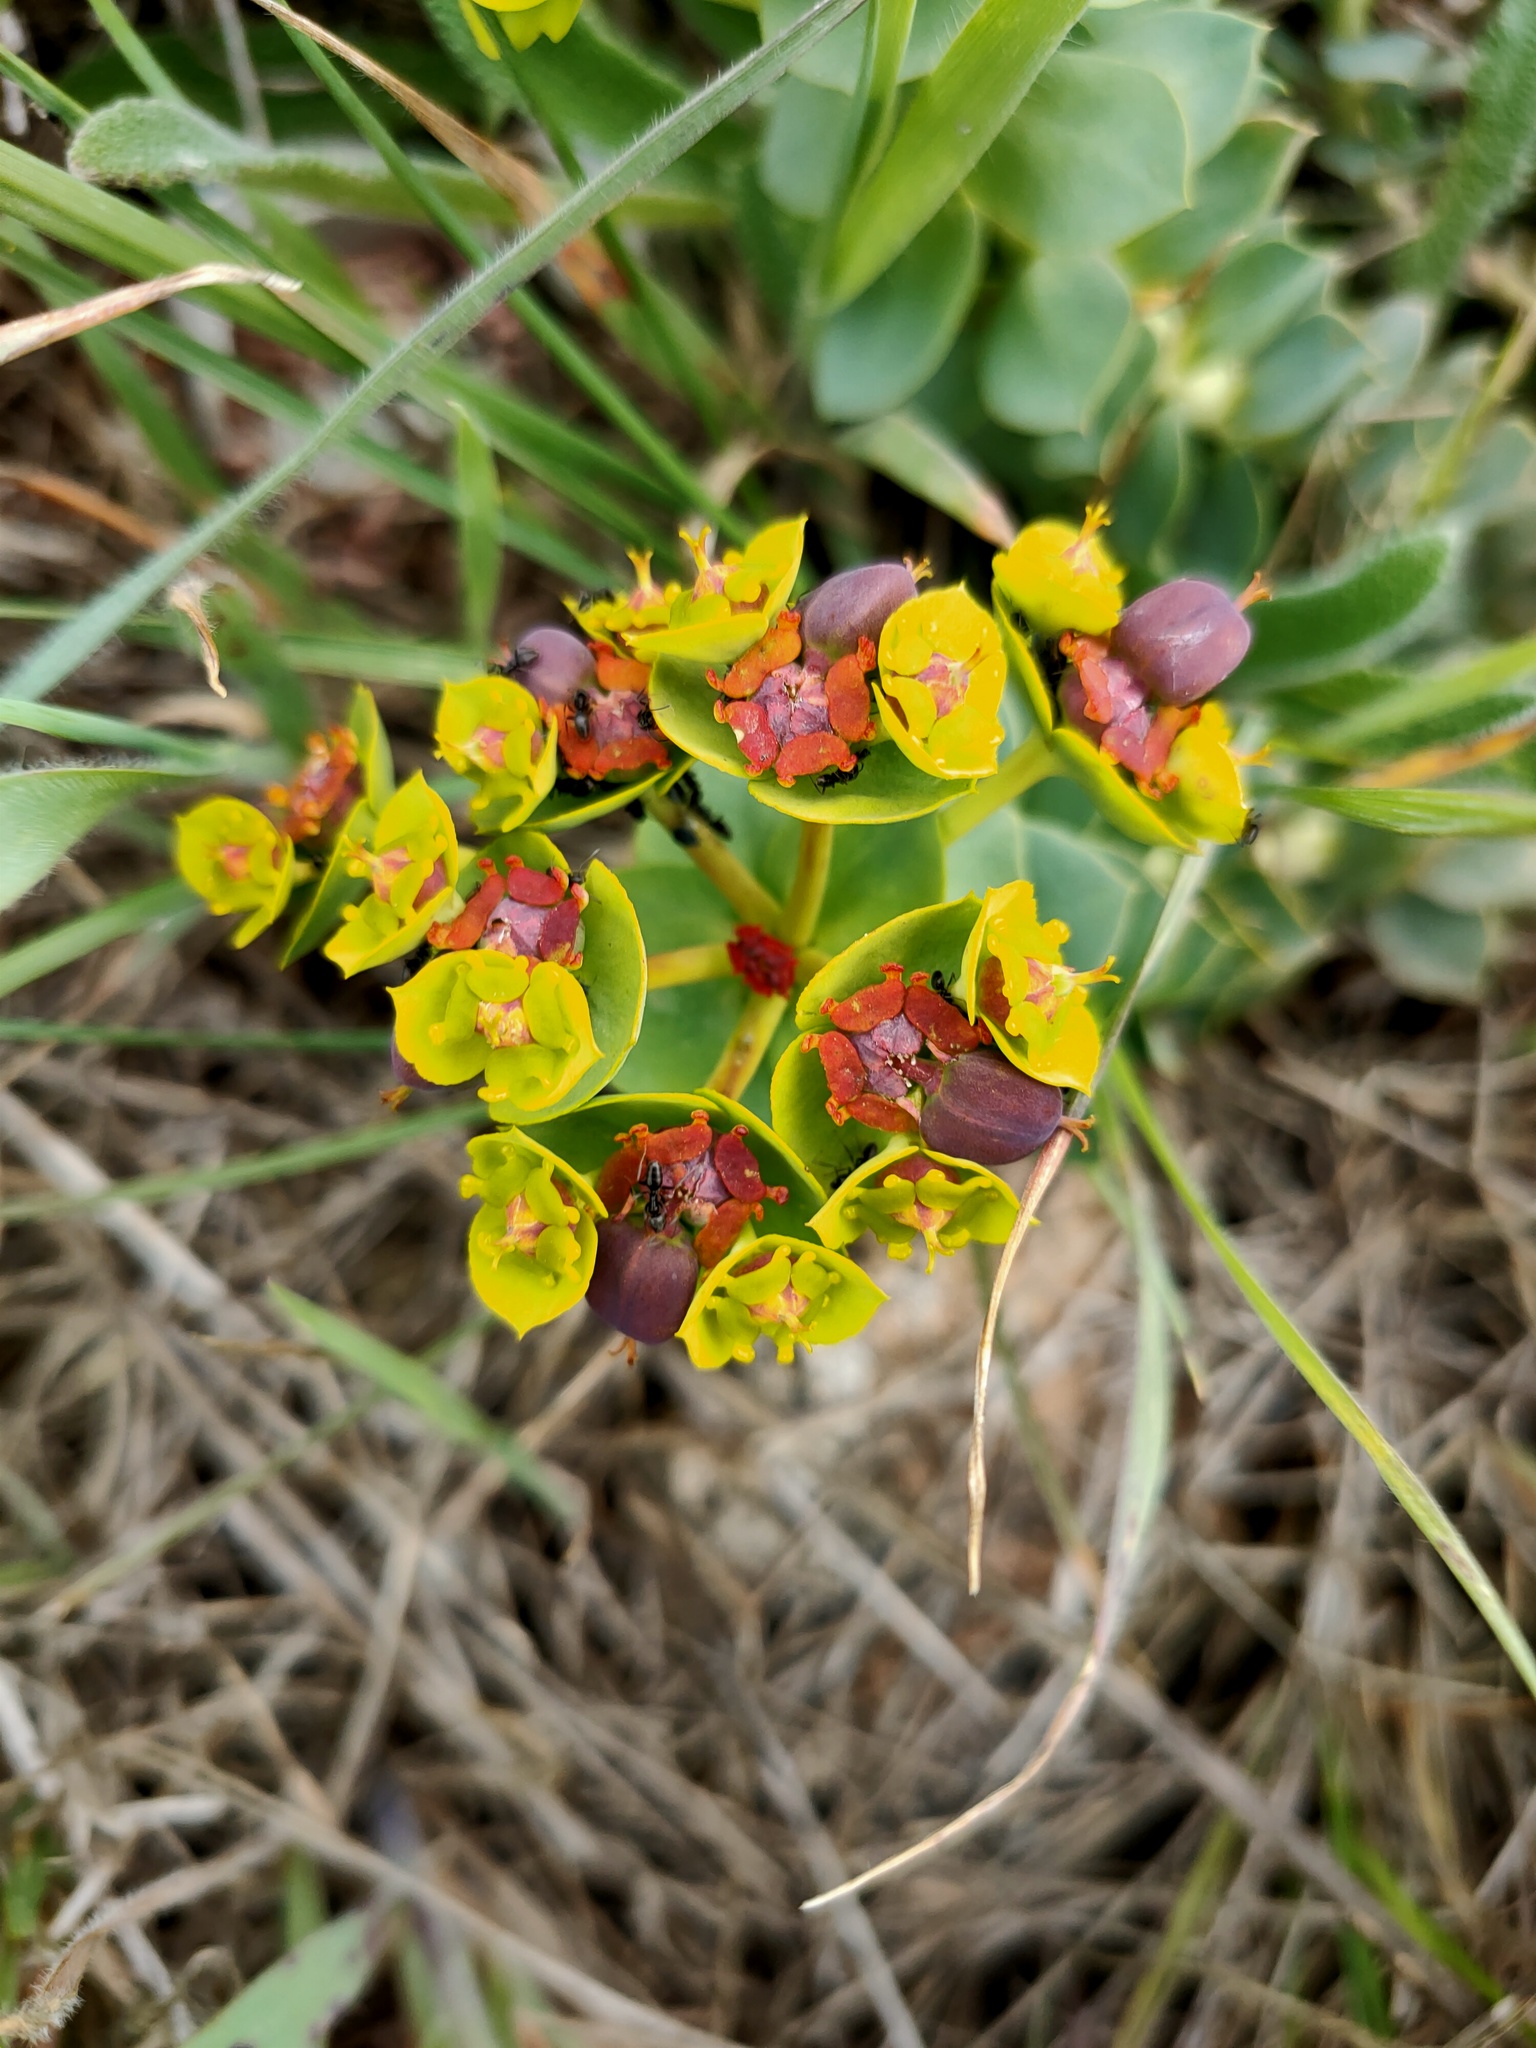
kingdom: Plantae
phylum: Tracheophyta
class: Magnoliopsida
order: Malpighiales
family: Euphorbiaceae
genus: Euphorbia
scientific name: Euphorbia myrsinites
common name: Myrtle spurge
